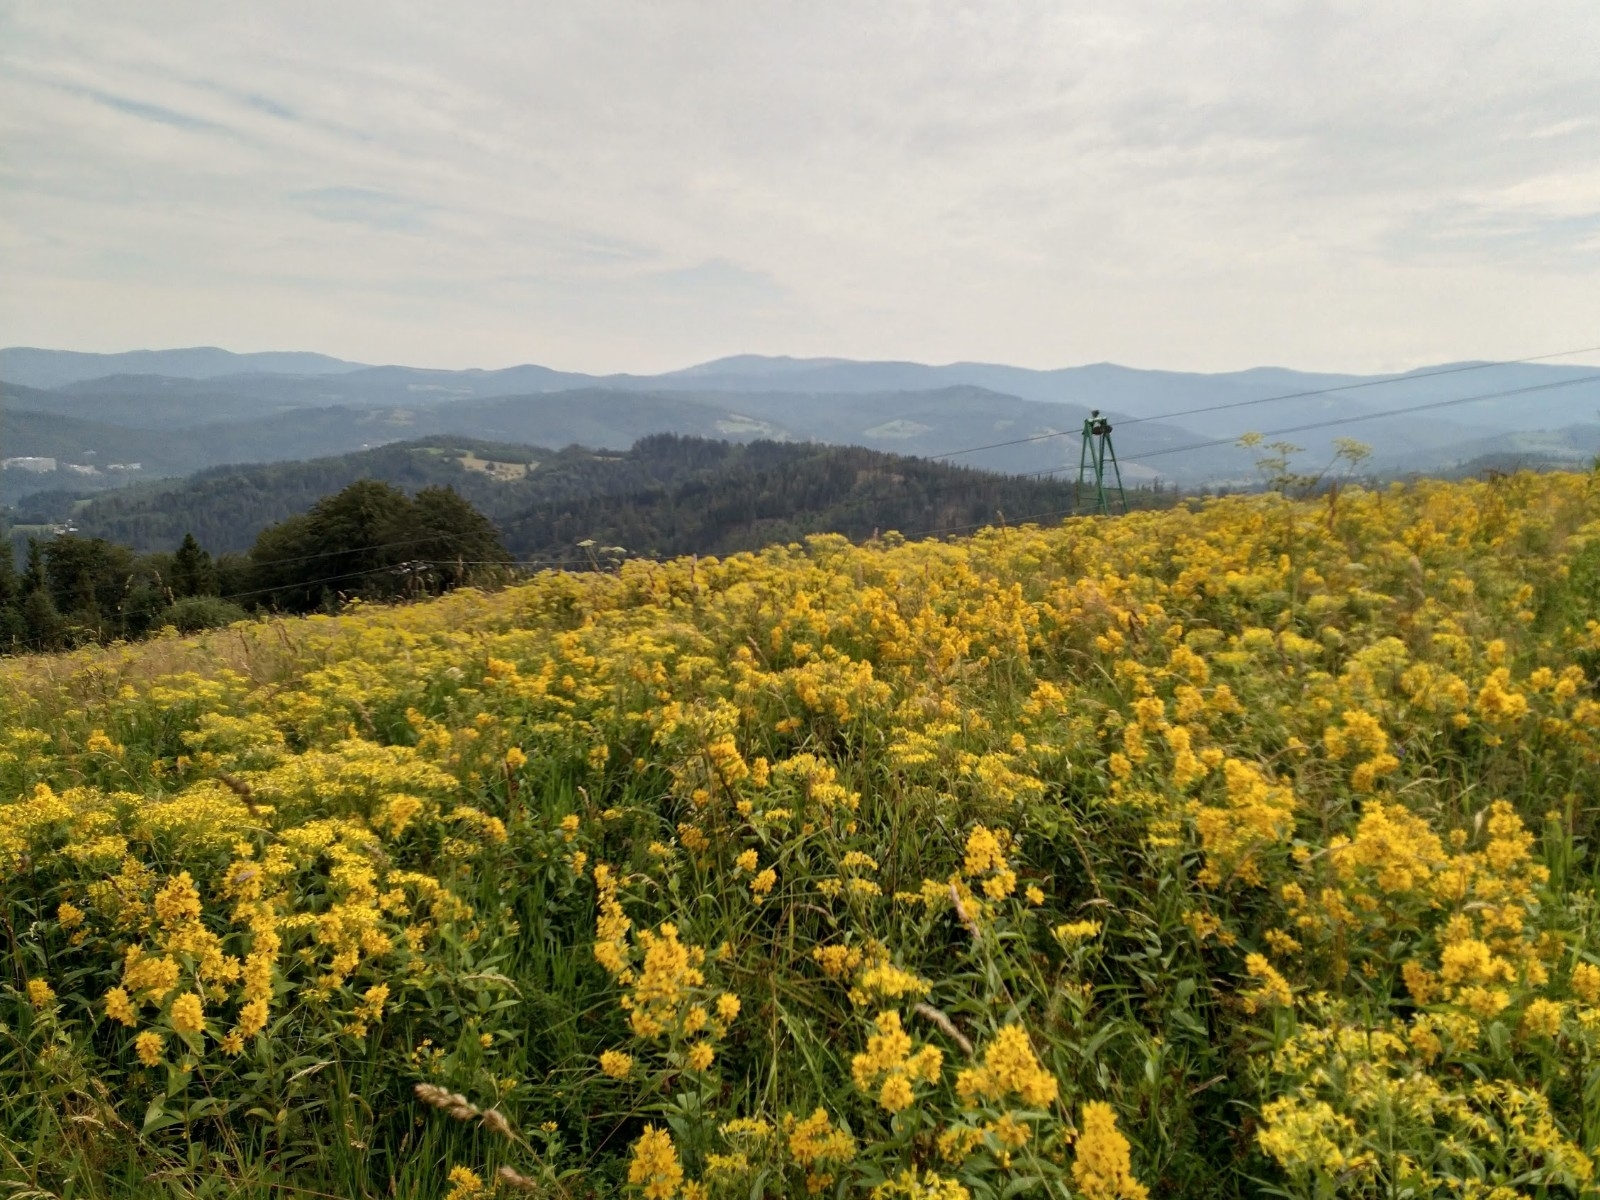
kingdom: Plantae
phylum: Tracheophyta
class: Magnoliopsida
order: Ericales
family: Primulaceae
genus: Lysimachia
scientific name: Lysimachia vulgaris
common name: Yellow loosestrife
